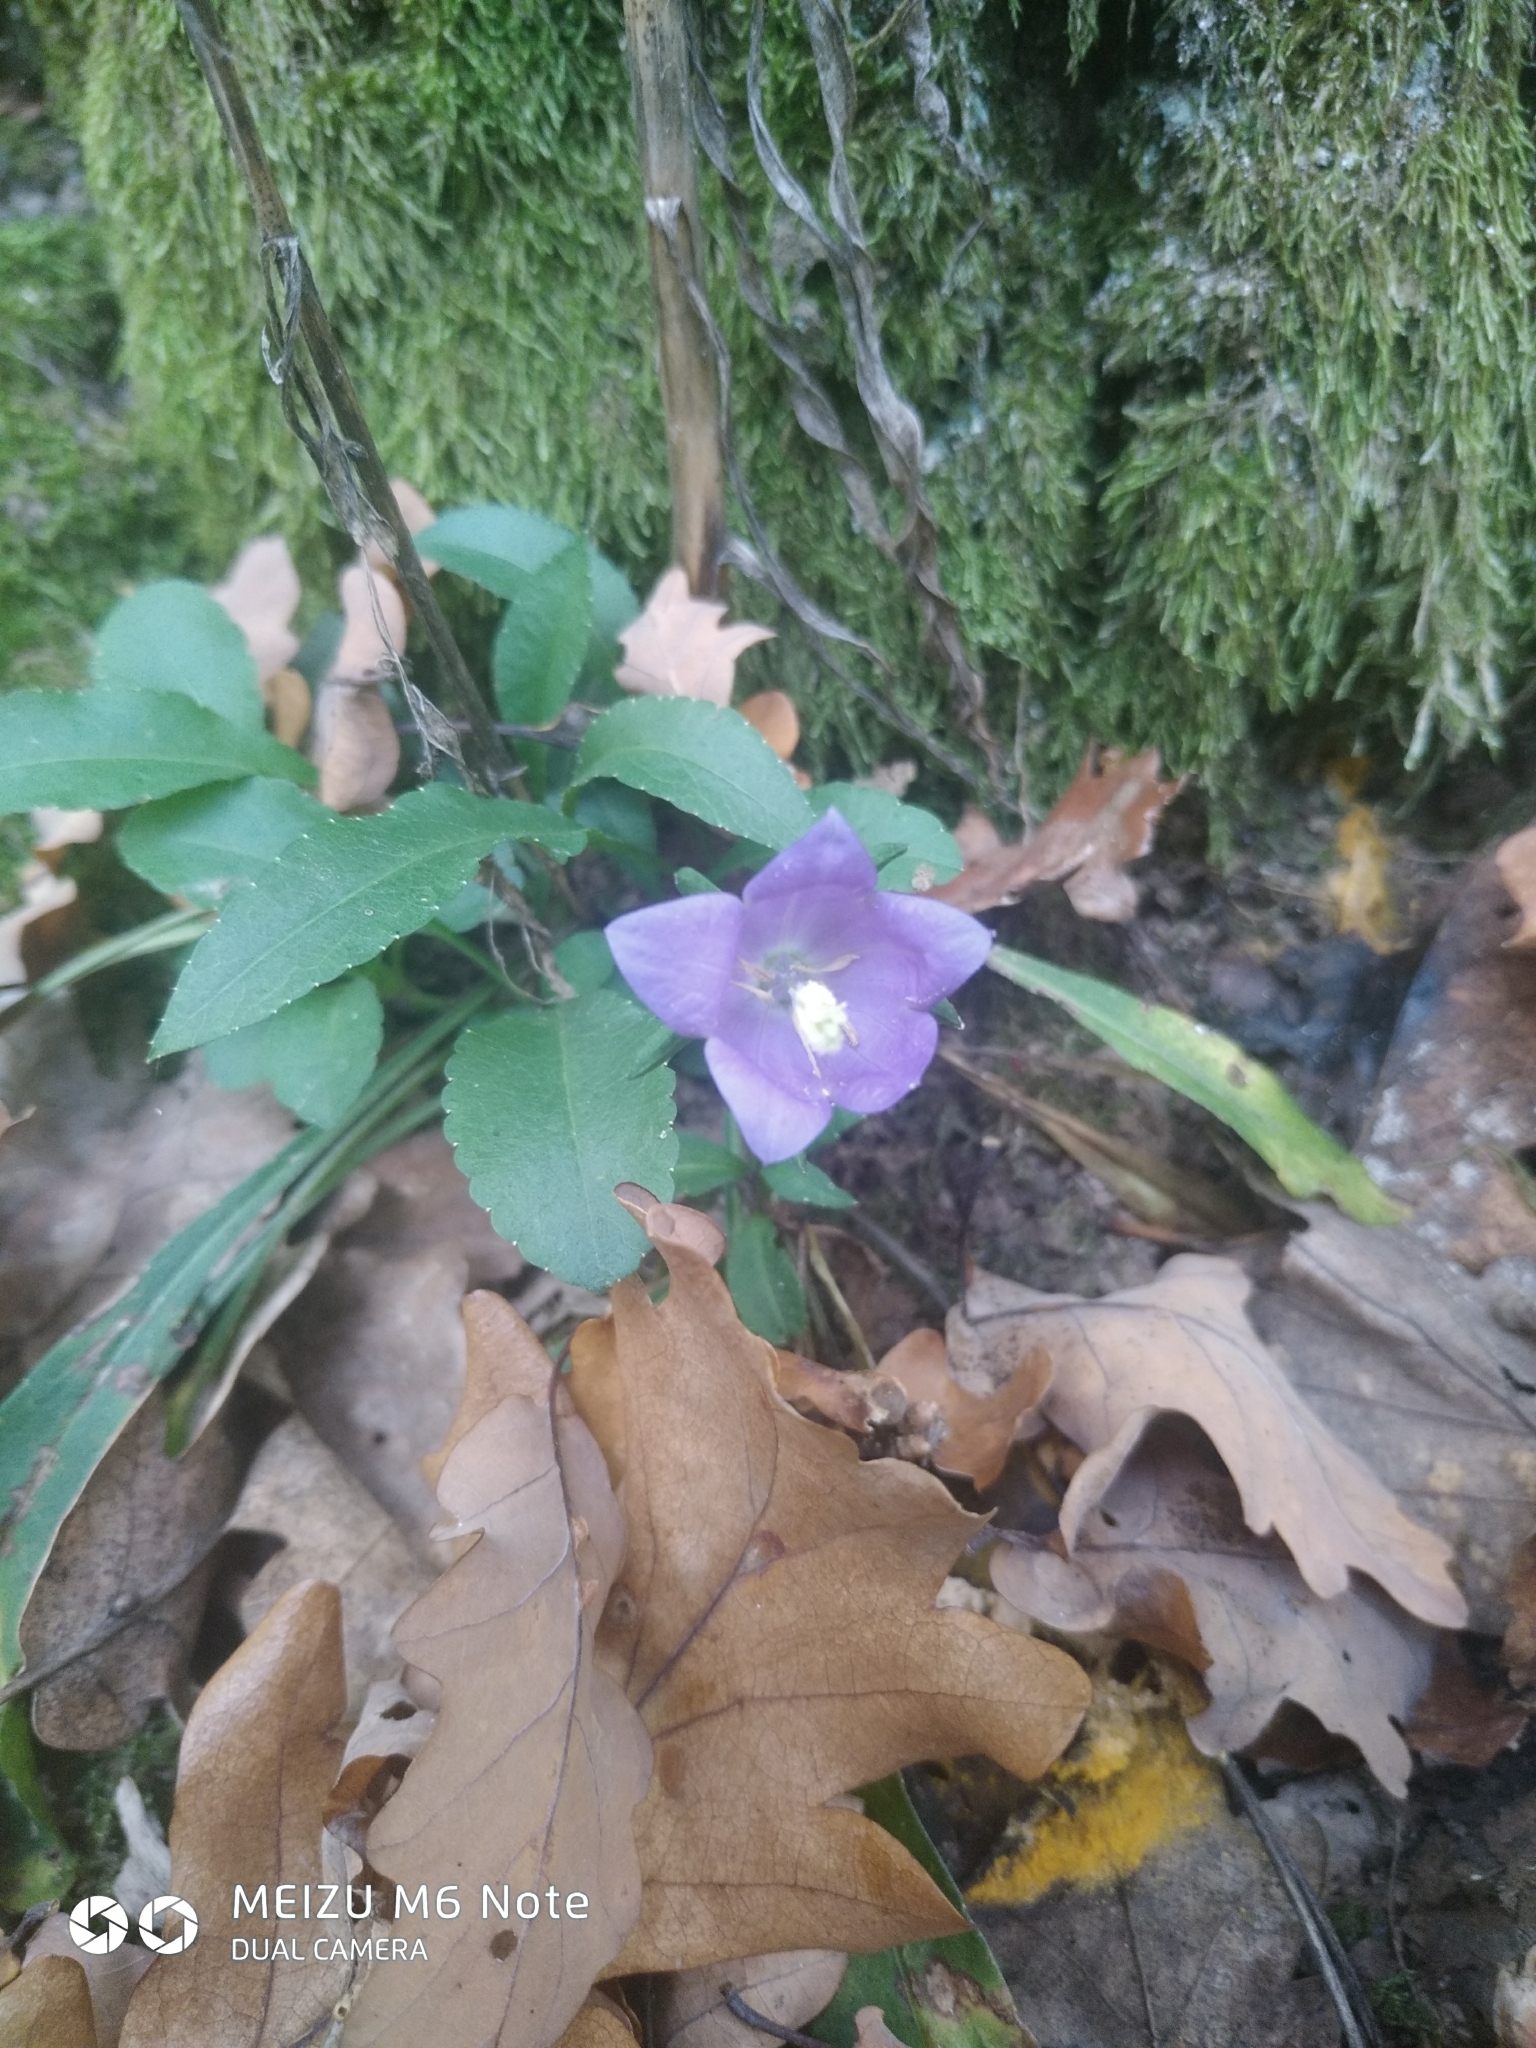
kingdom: Plantae
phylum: Tracheophyta
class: Magnoliopsida
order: Asterales
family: Campanulaceae
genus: Campanula
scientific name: Campanula persicifolia
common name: Peach-leaved bellflower
